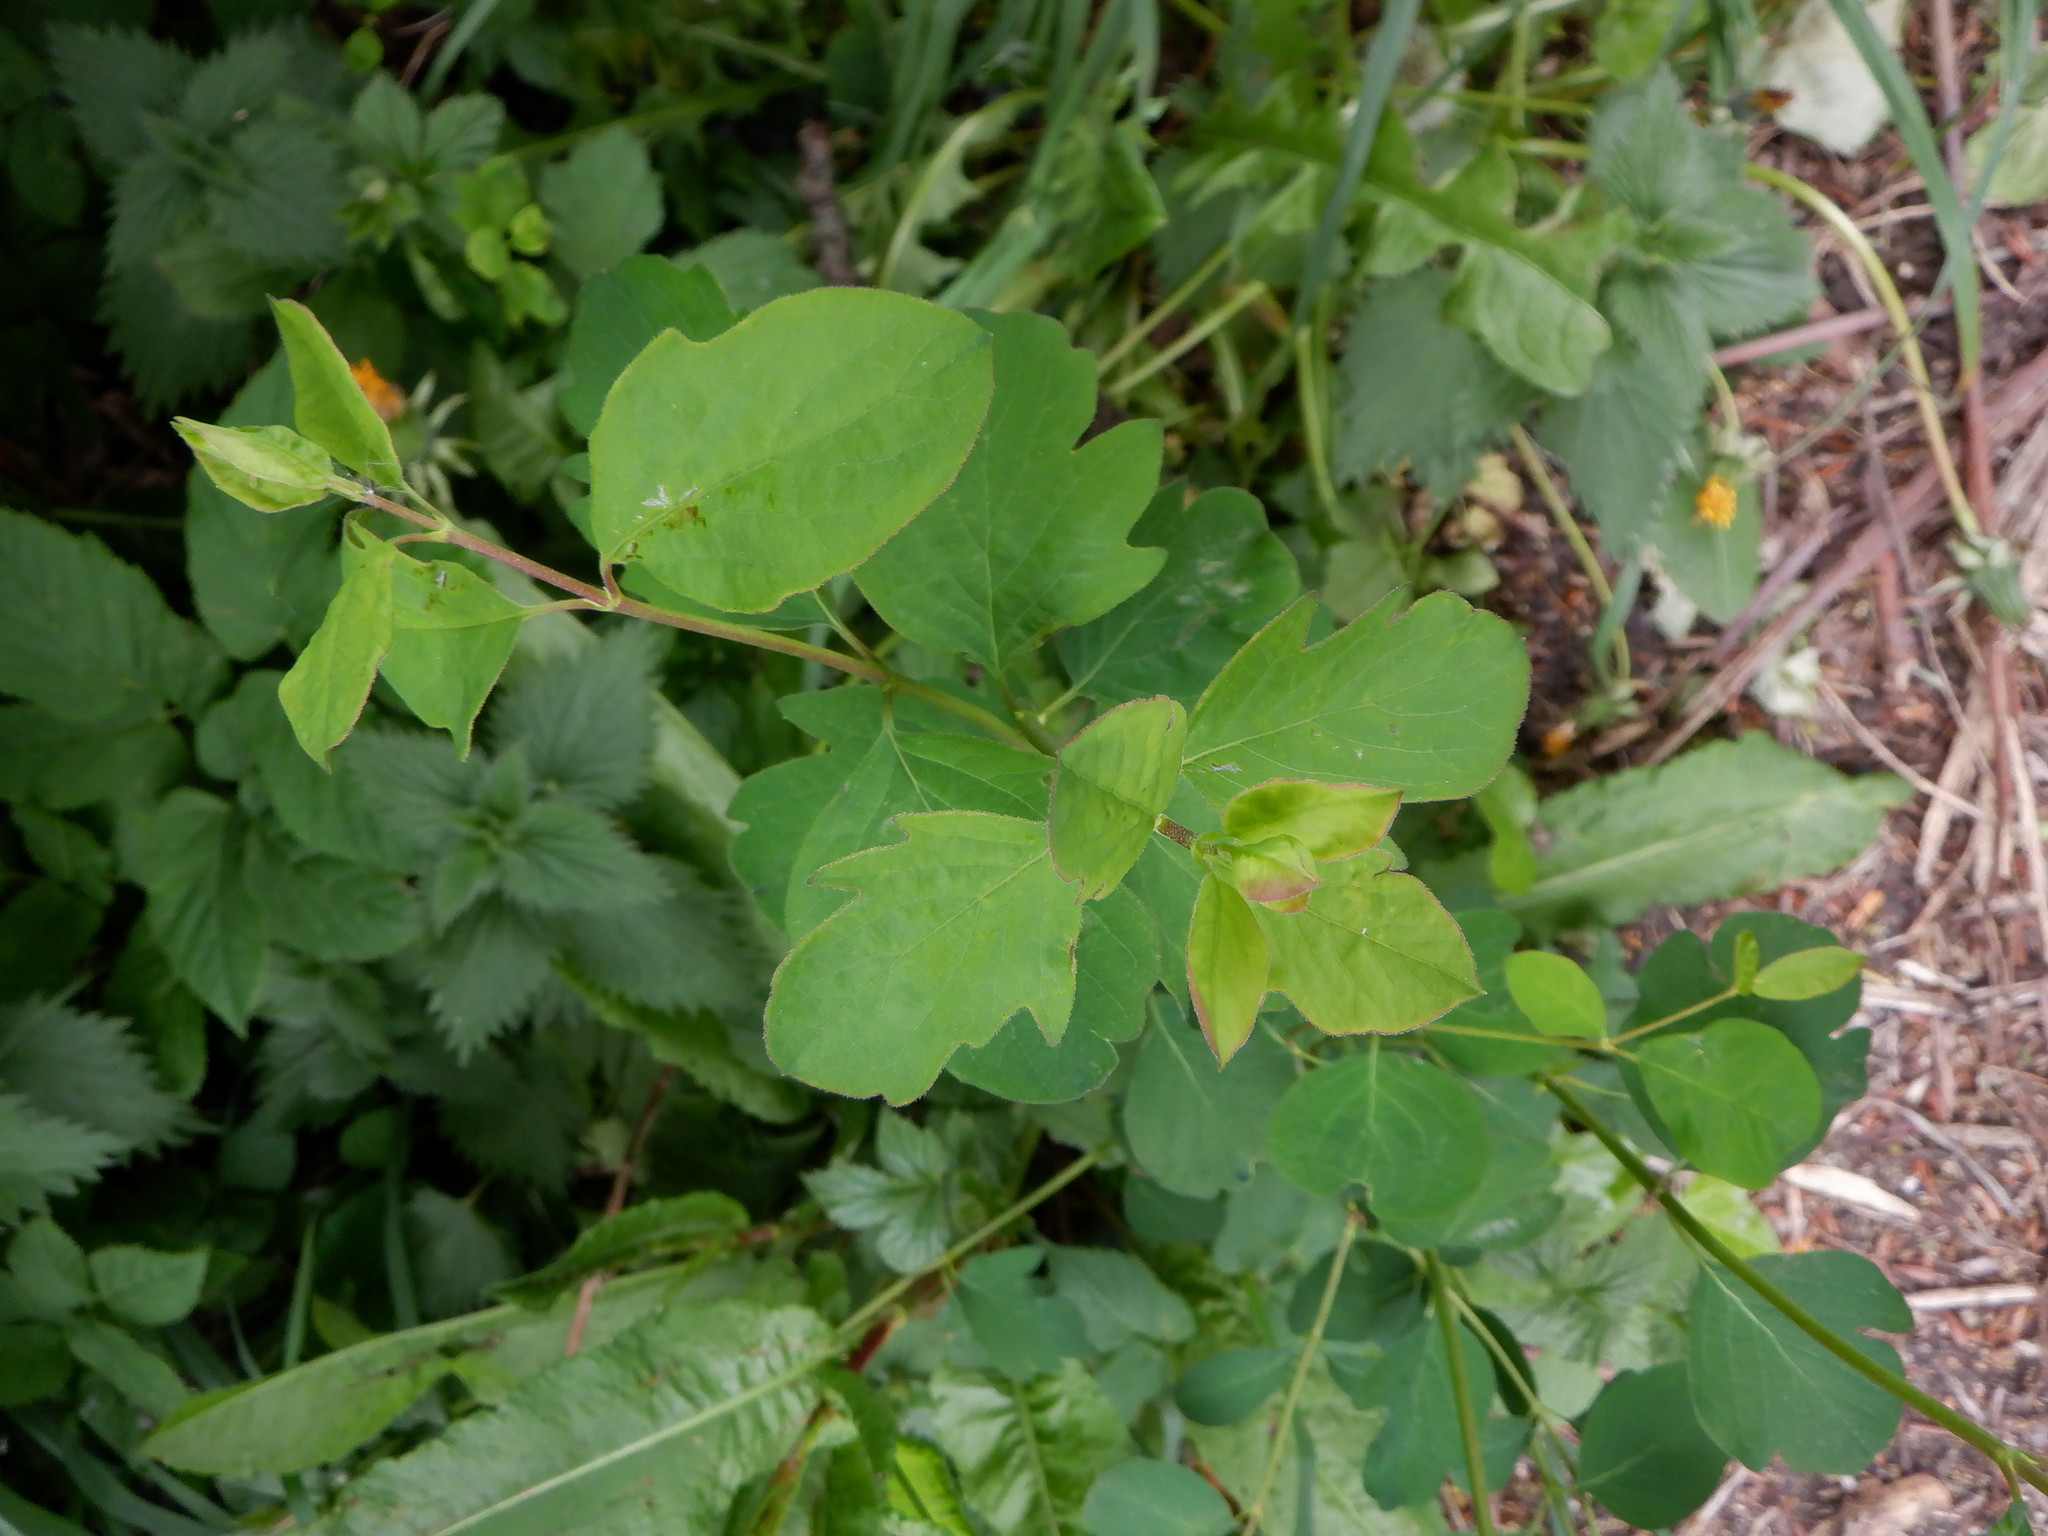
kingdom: Plantae
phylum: Tracheophyta
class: Magnoliopsida
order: Dipsacales
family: Caprifoliaceae
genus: Symphoricarpos
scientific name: Symphoricarpos albus
